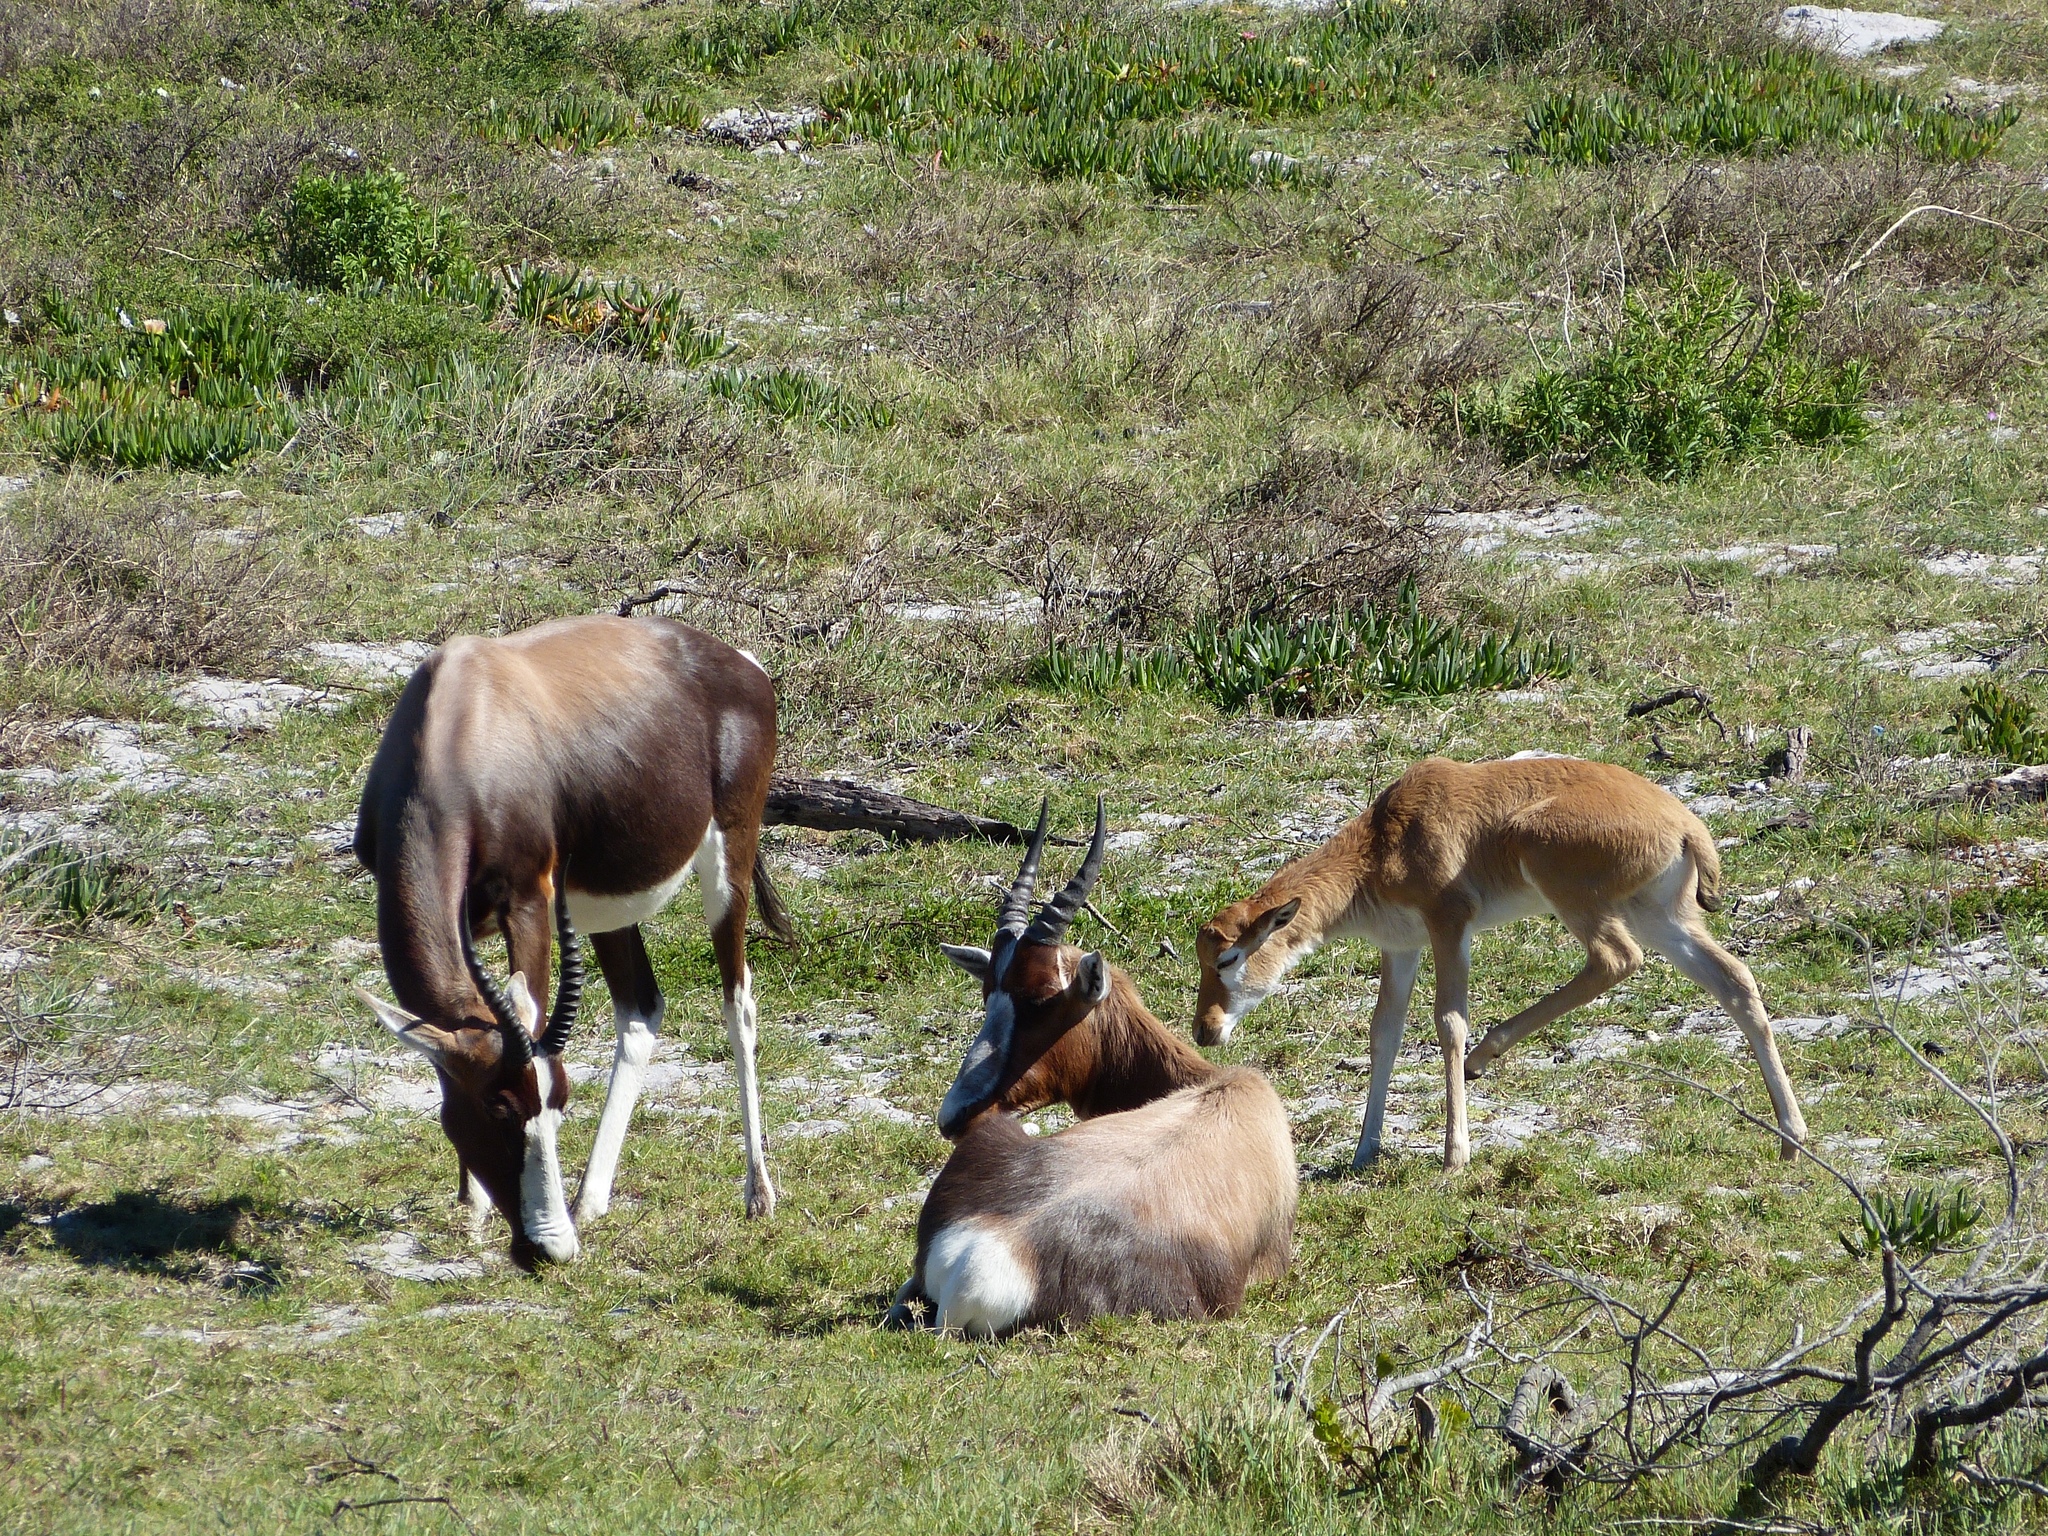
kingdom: Animalia
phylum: Chordata
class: Mammalia
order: Artiodactyla
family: Bovidae
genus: Damaliscus
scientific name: Damaliscus pygargus
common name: Bontebok
